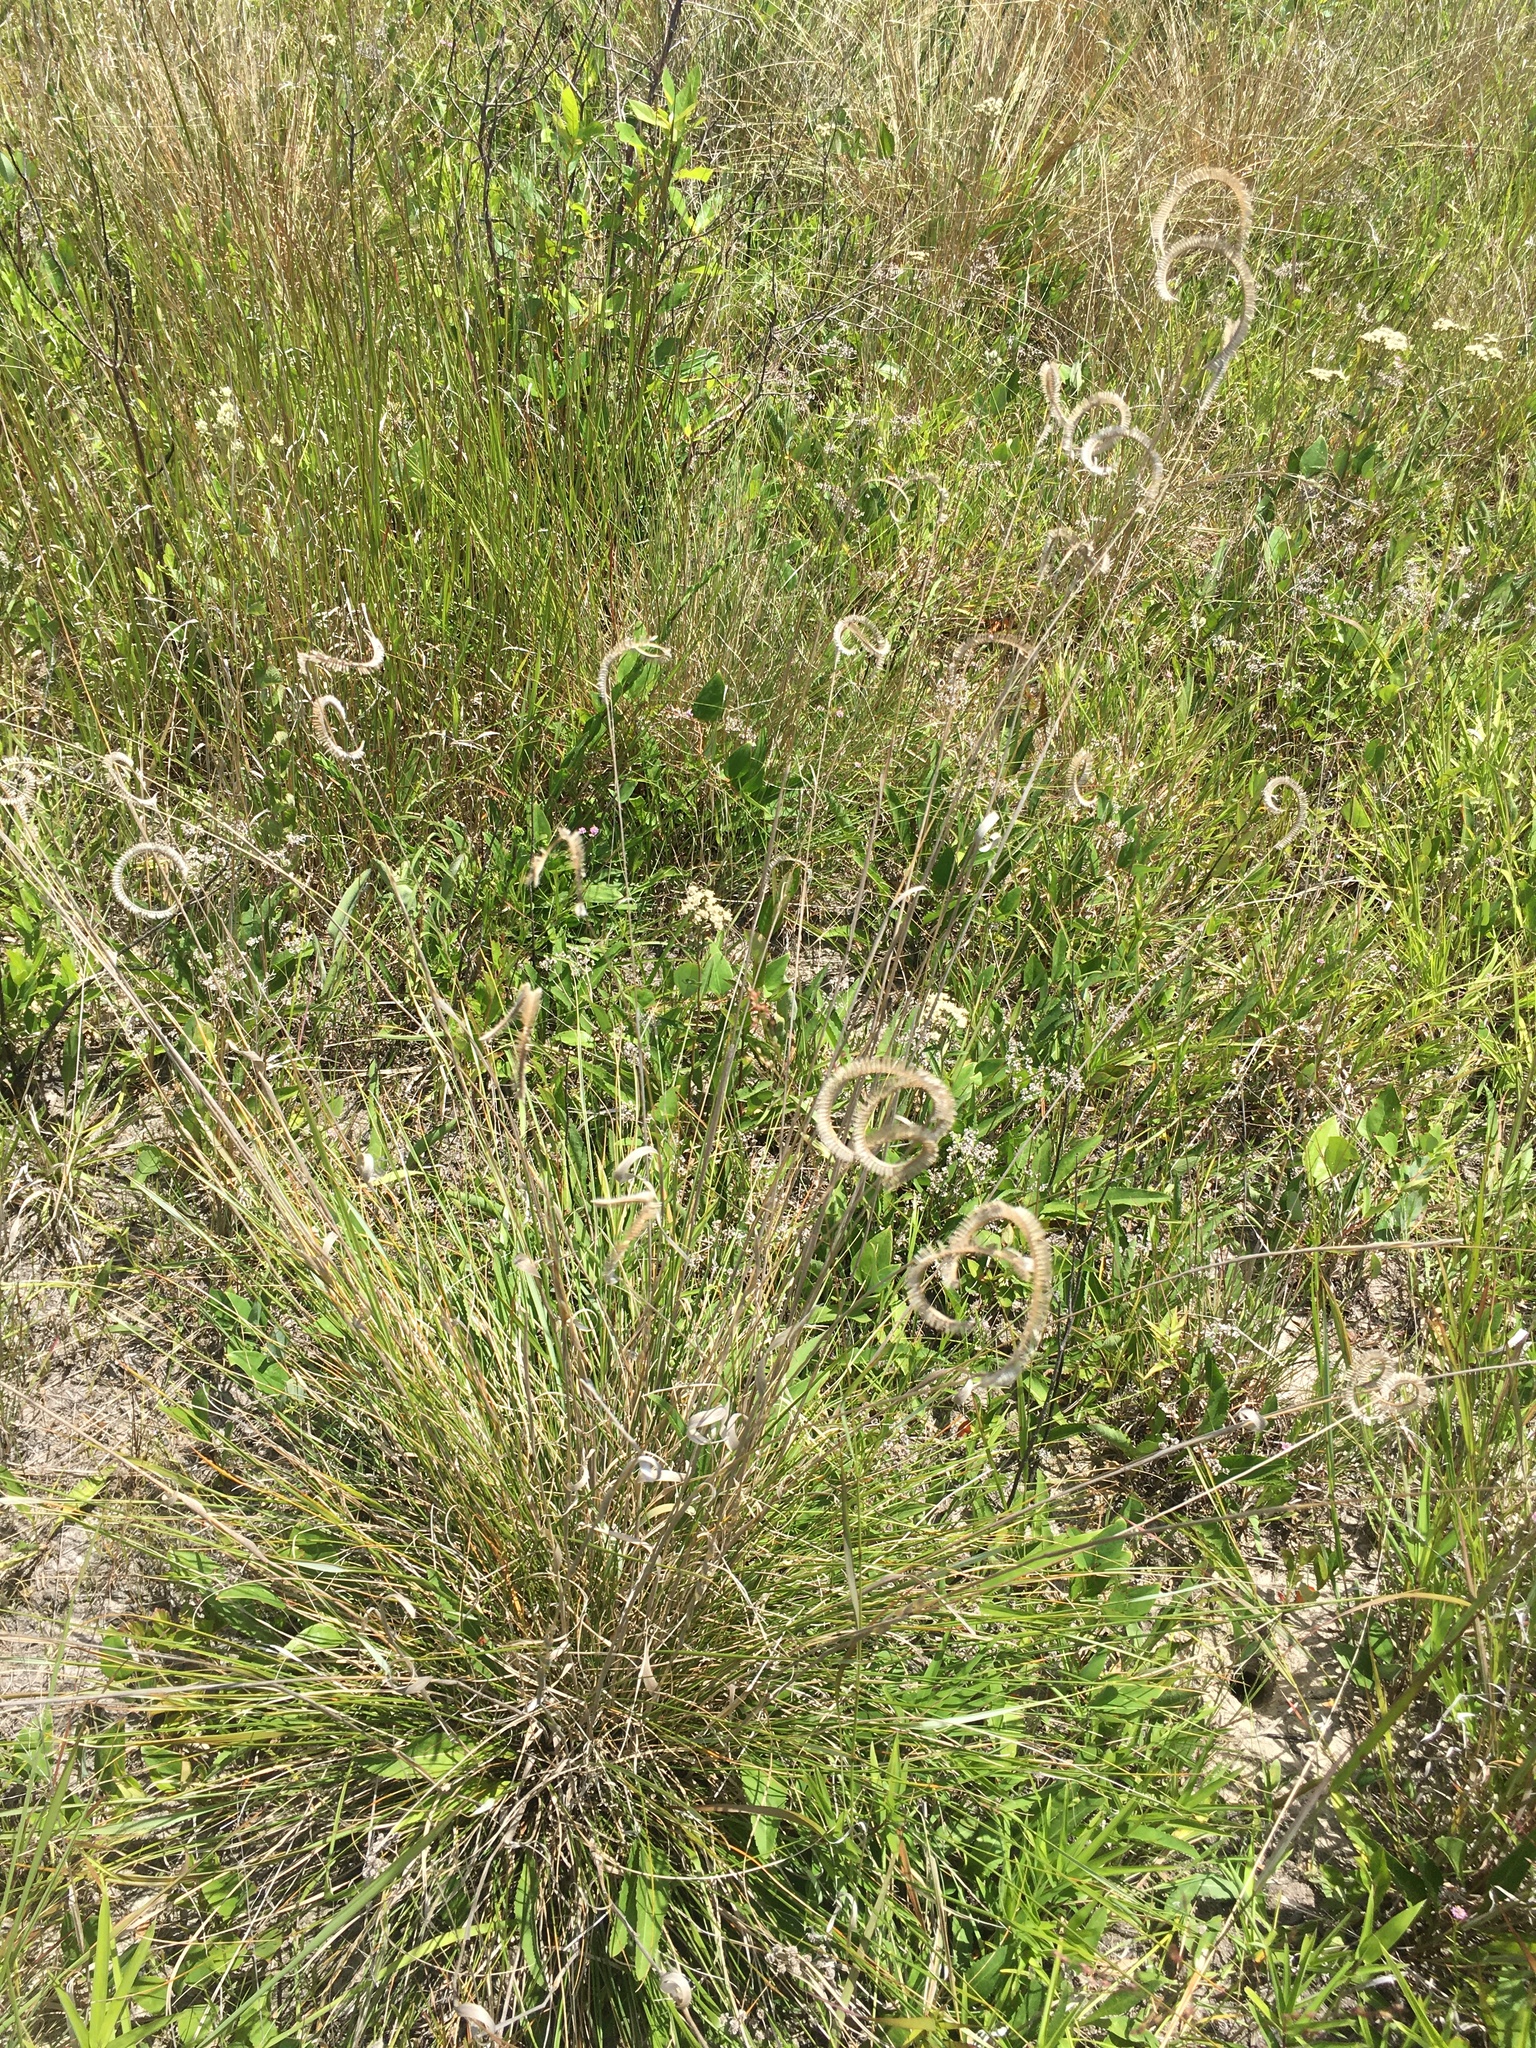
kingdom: Plantae
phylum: Tracheophyta
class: Liliopsida
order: Poales
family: Poaceae
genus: Ctenium
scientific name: Ctenium aromaticum
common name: Toothache grass
